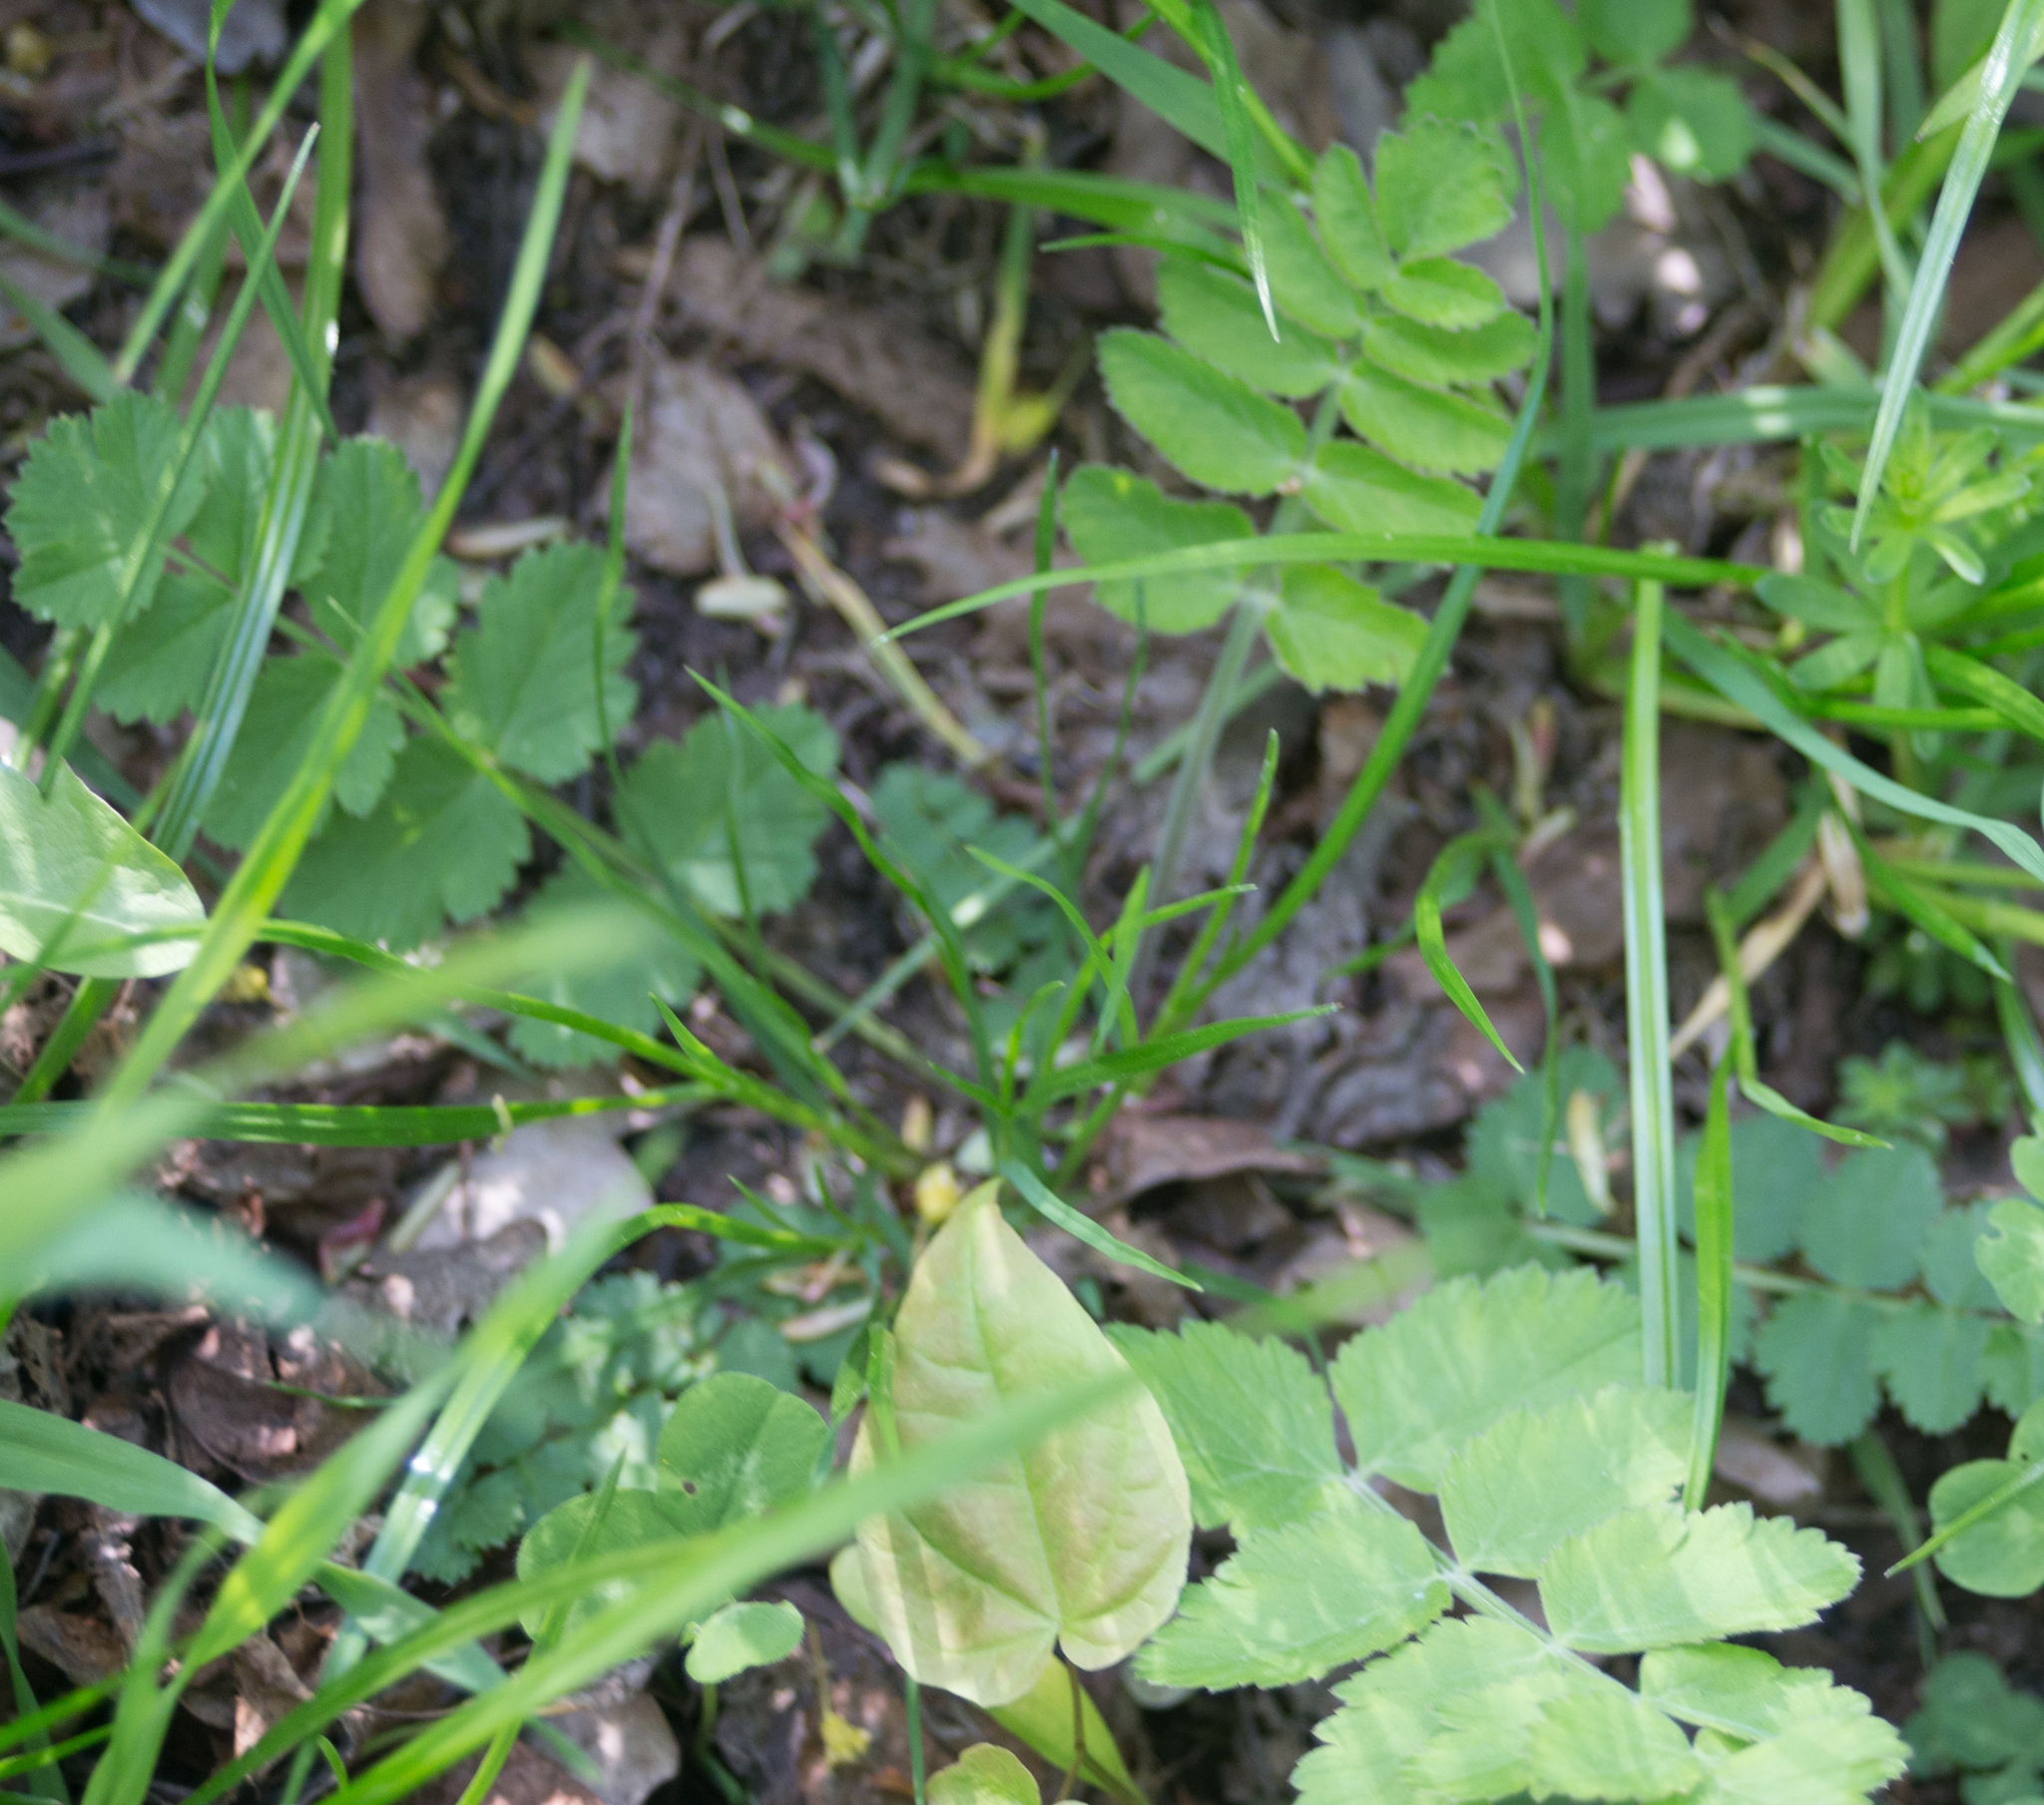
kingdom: Plantae
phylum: Tracheophyta
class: Magnoliopsida
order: Apiales
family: Apiaceae
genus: Pimpinella
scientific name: Pimpinella saxifraga
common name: Burnet-saxifrage
